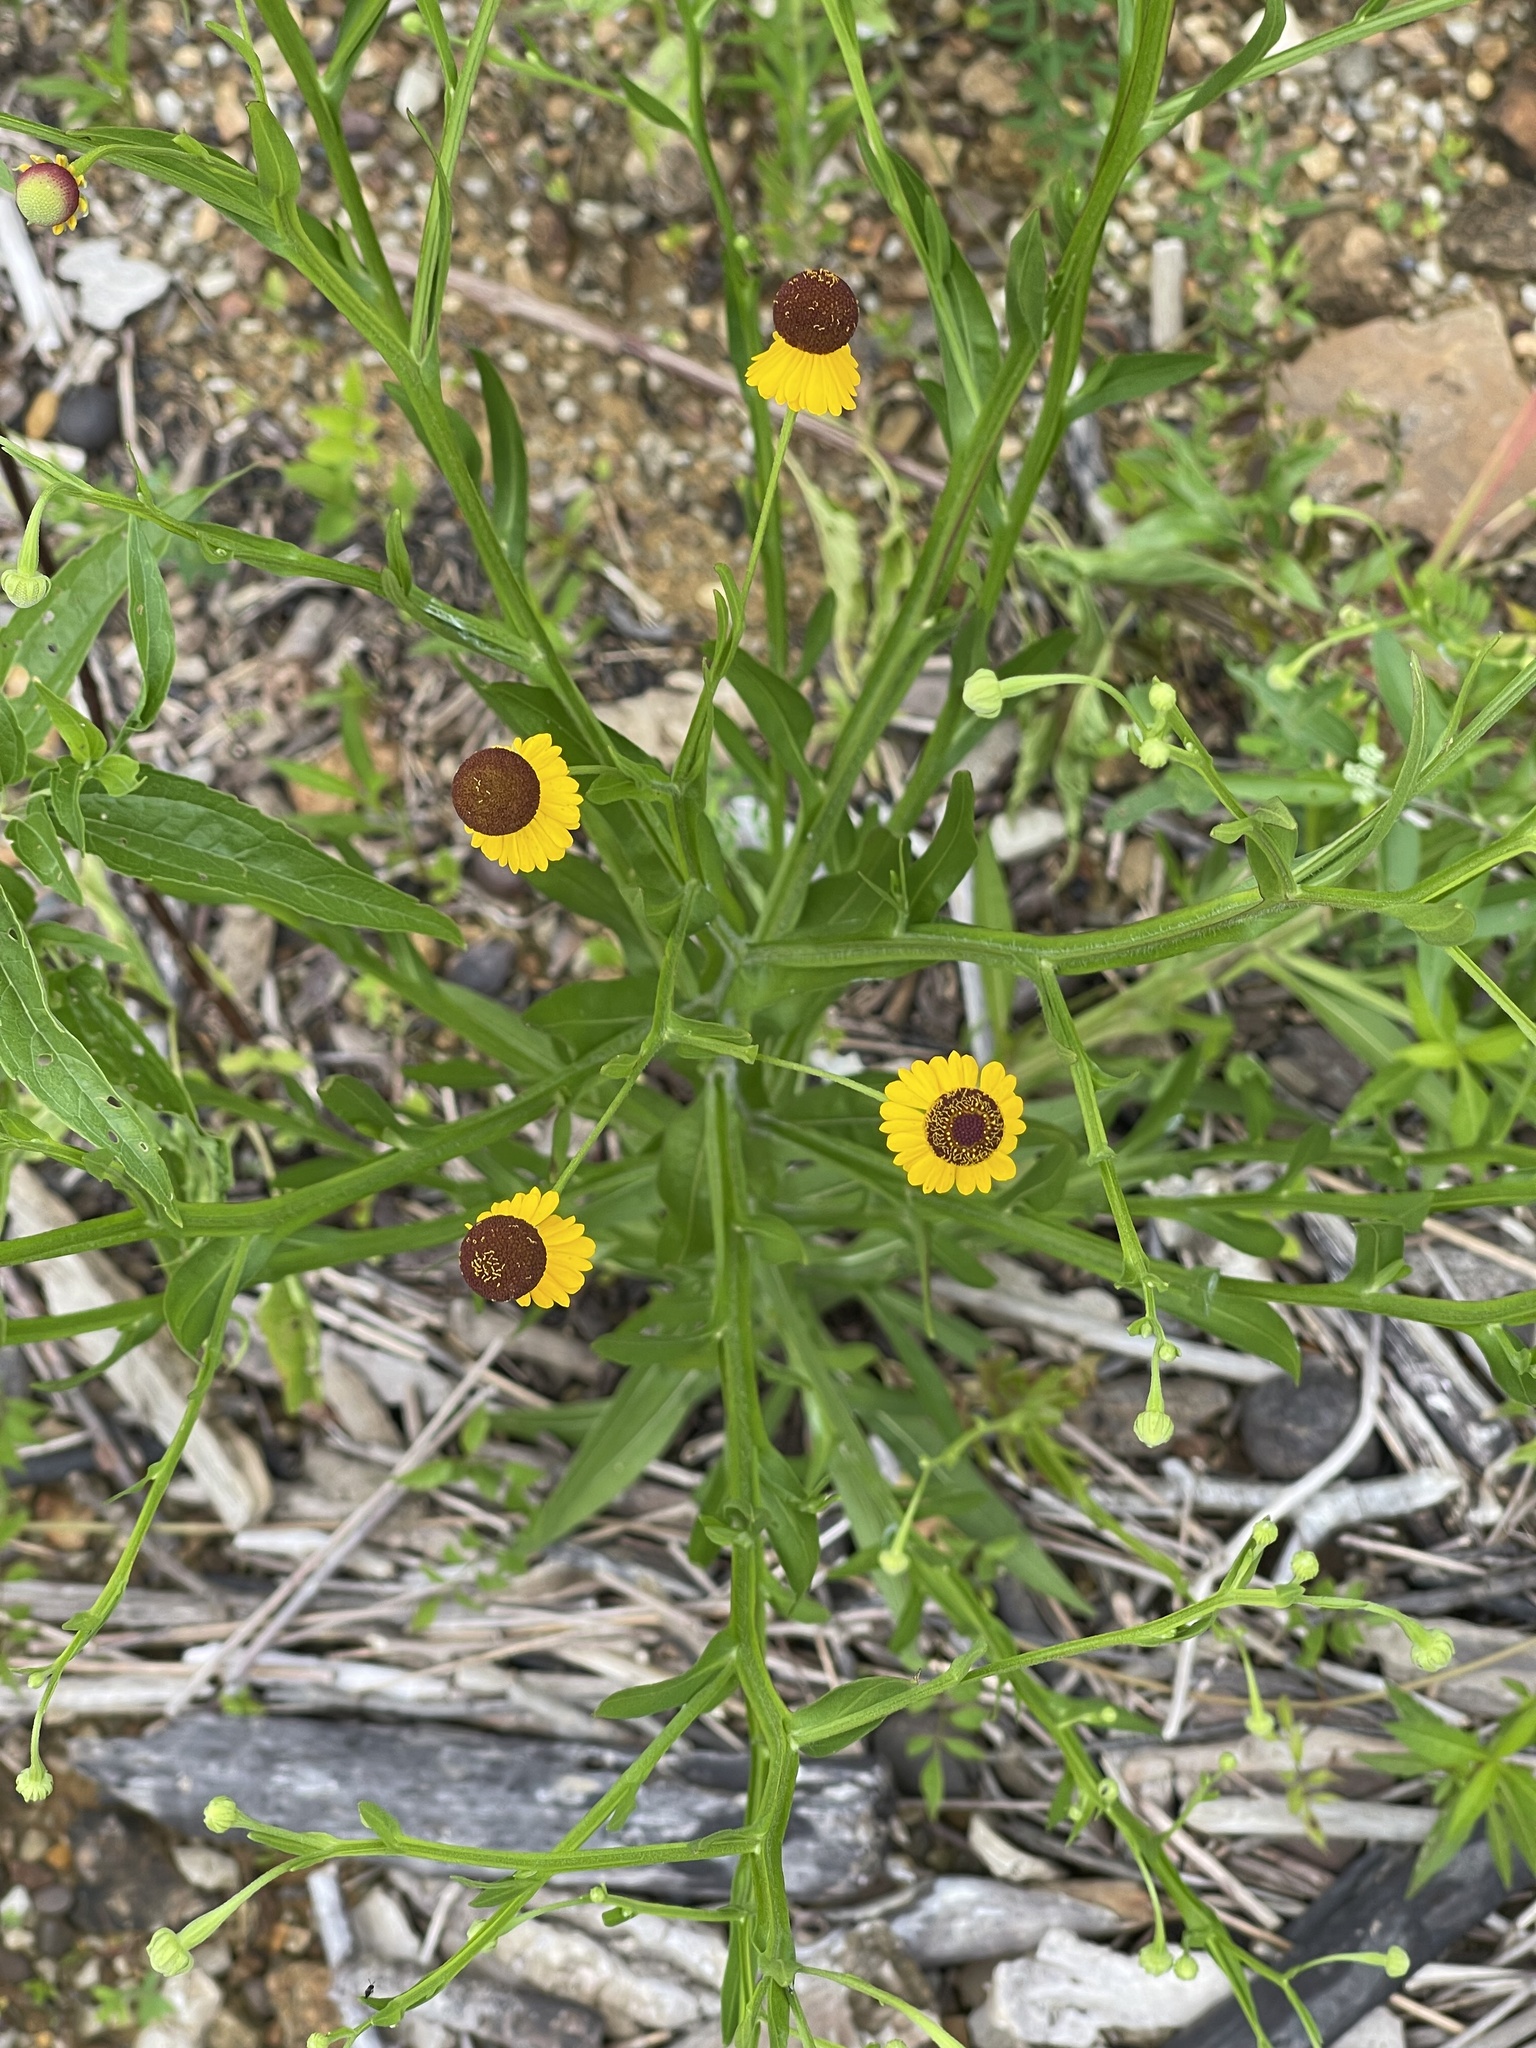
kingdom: Plantae
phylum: Tracheophyta
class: Magnoliopsida
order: Asterales
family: Asteraceae
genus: Helenium
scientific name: Helenium flexuosum
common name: Naked-flowered sneezeweed
